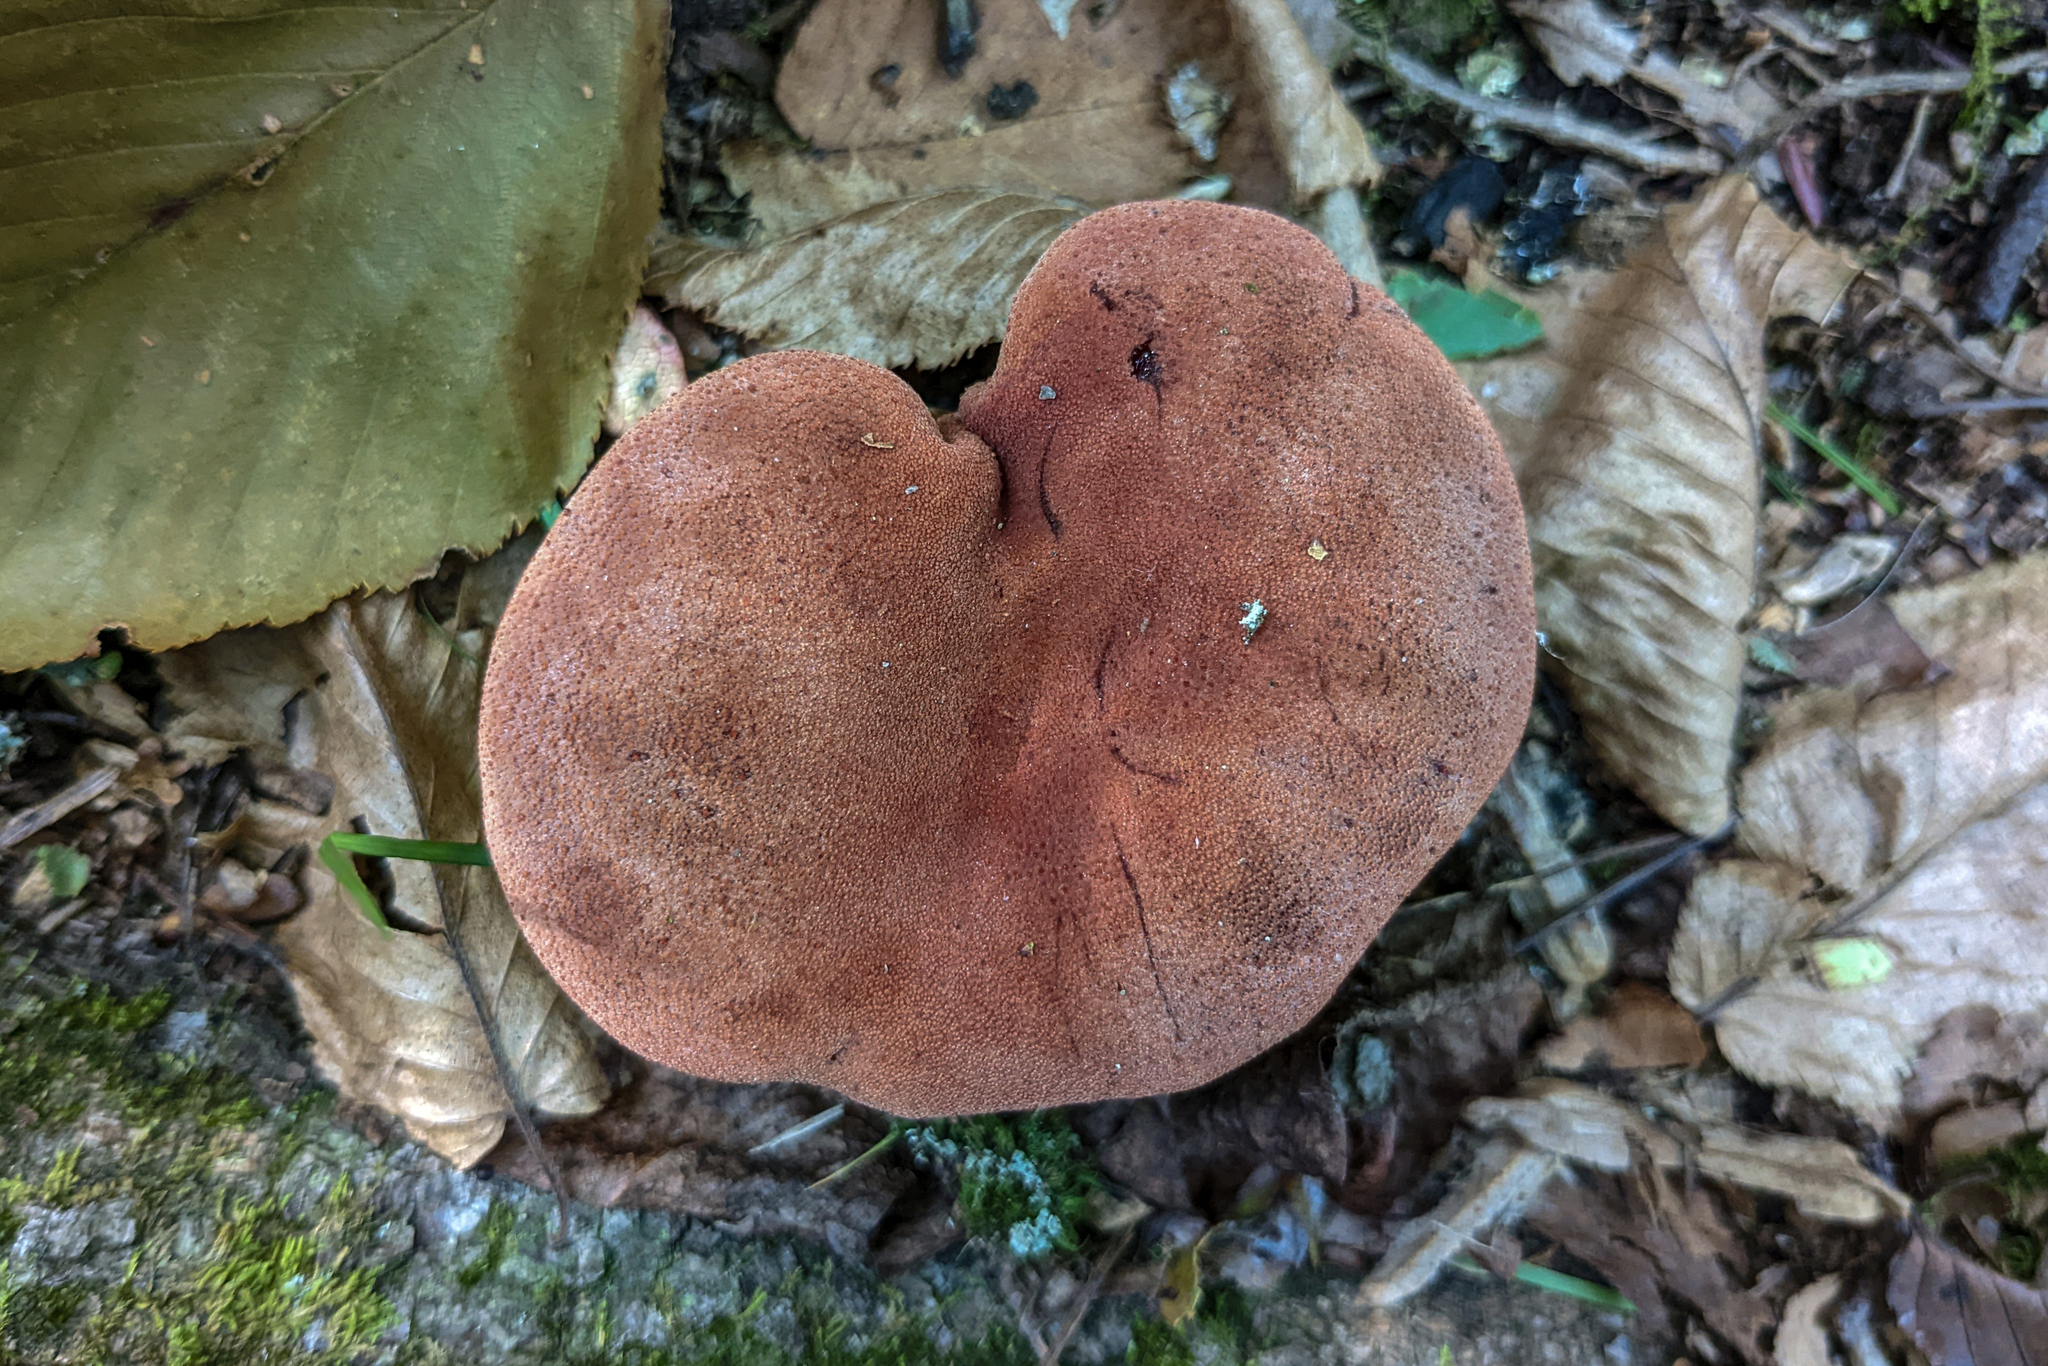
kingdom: Fungi
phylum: Basidiomycota
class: Agaricomycetes
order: Agaricales
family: Fistulinaceae
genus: Fistulina
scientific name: Fistulina hepatica
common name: Beef-steak fungus
